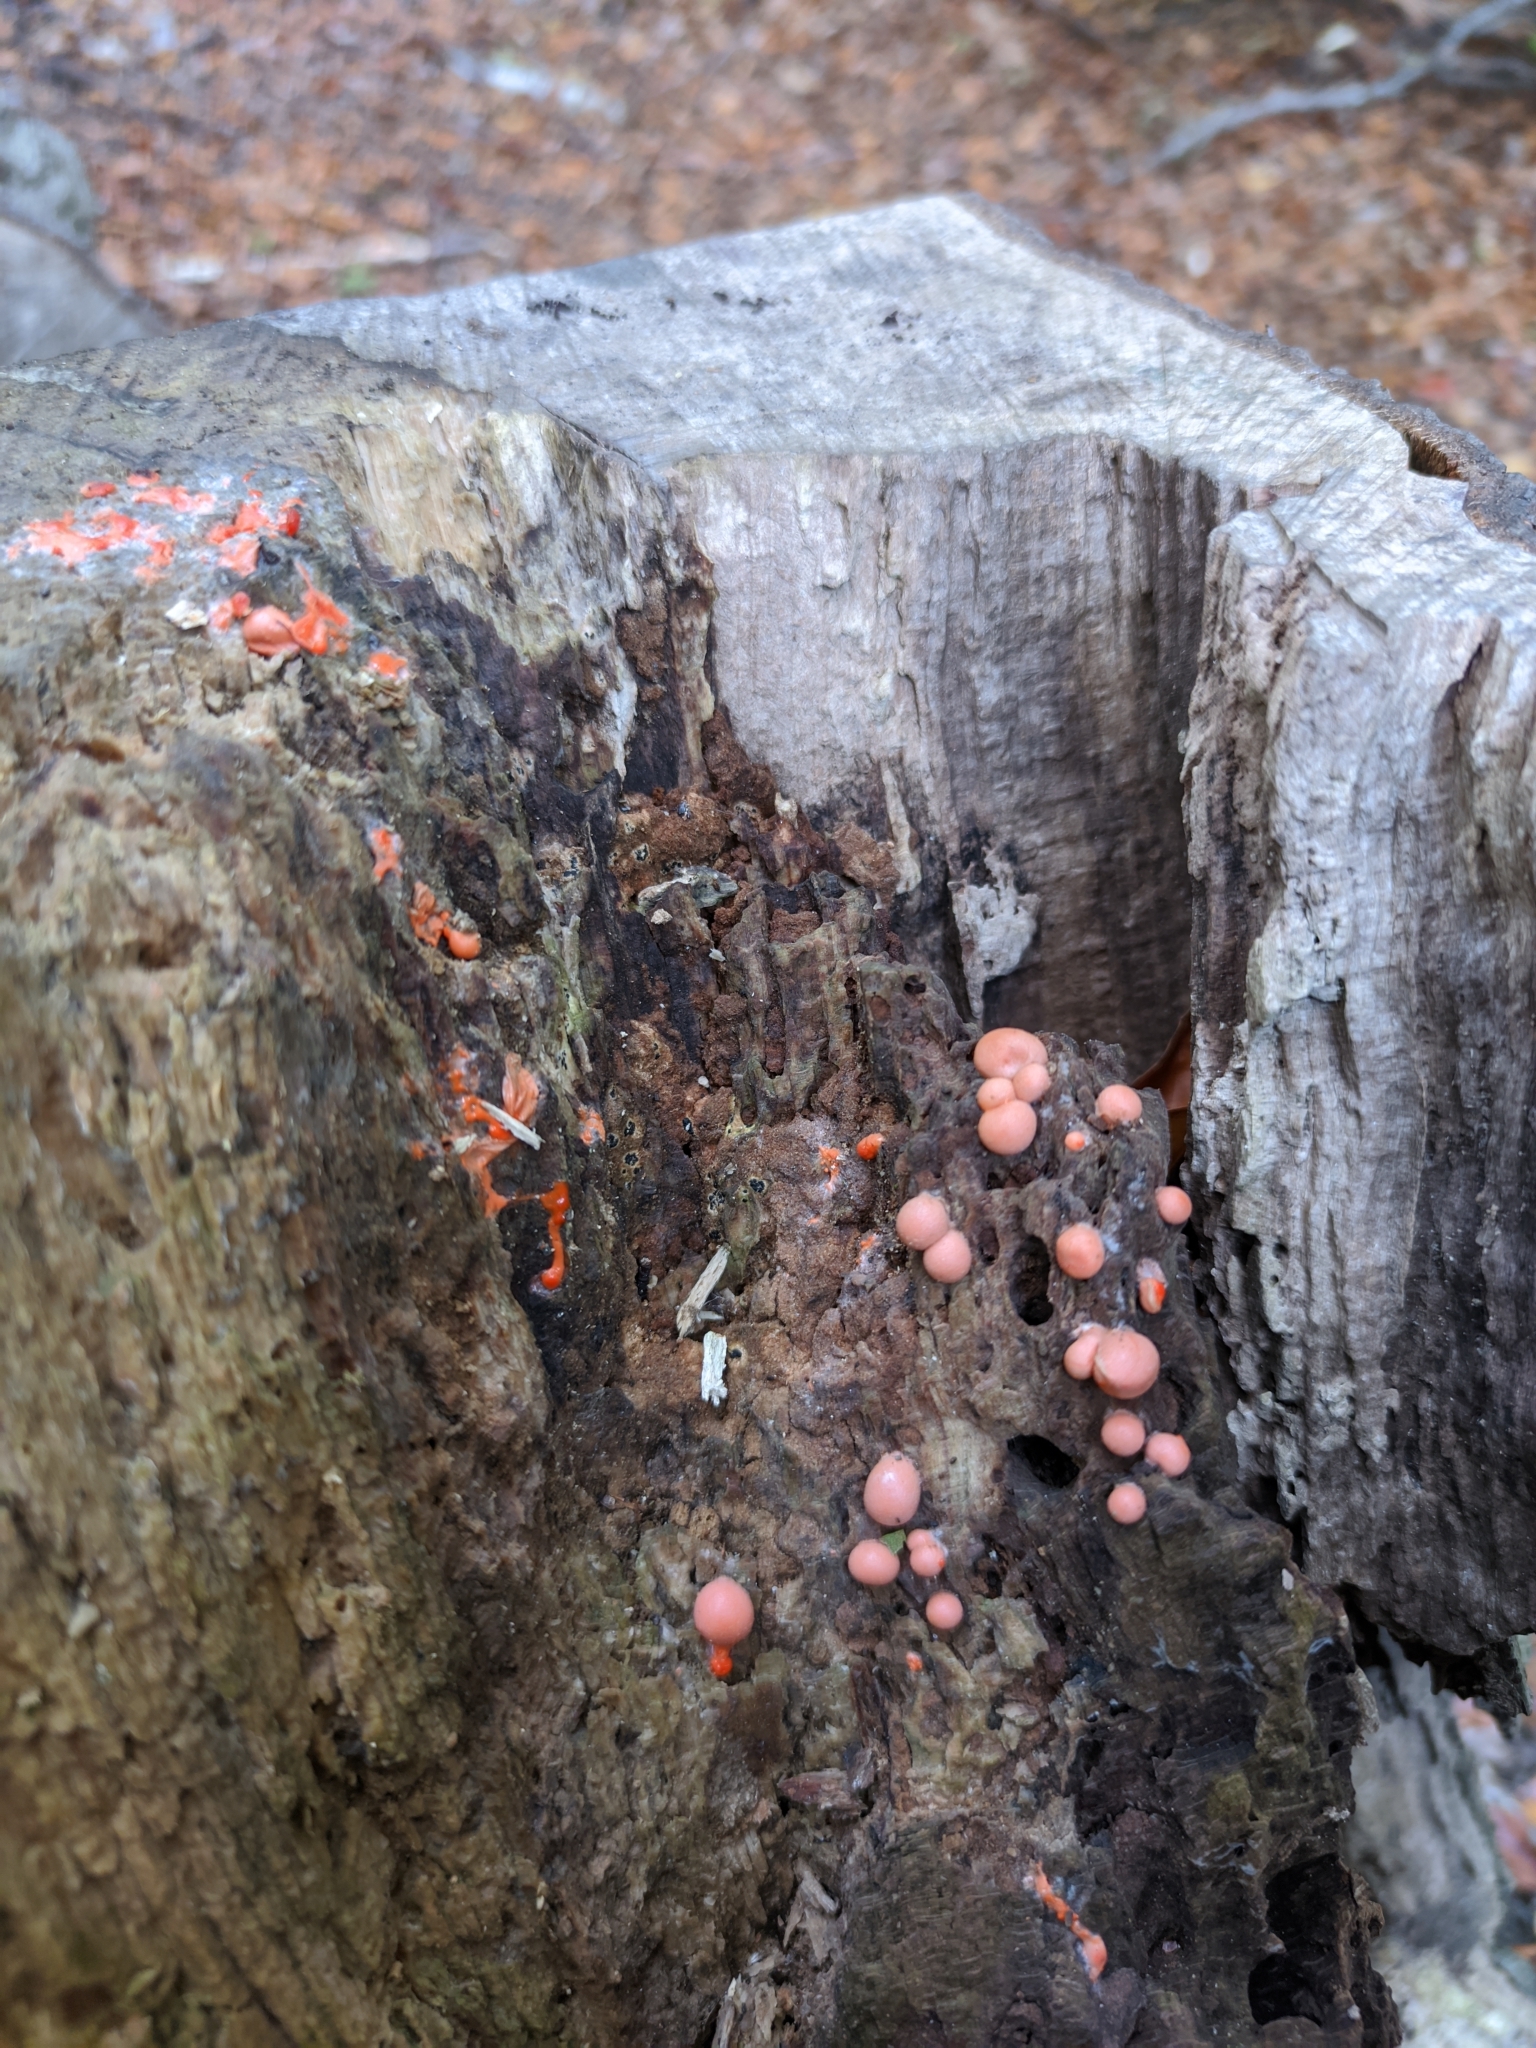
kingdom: Protozoa
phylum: Mycetozoa
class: Myxomycetes
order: Cribrariales
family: Tubiferaceae
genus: Lycogala
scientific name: Lycogala epidendrum
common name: Wolf's milk
